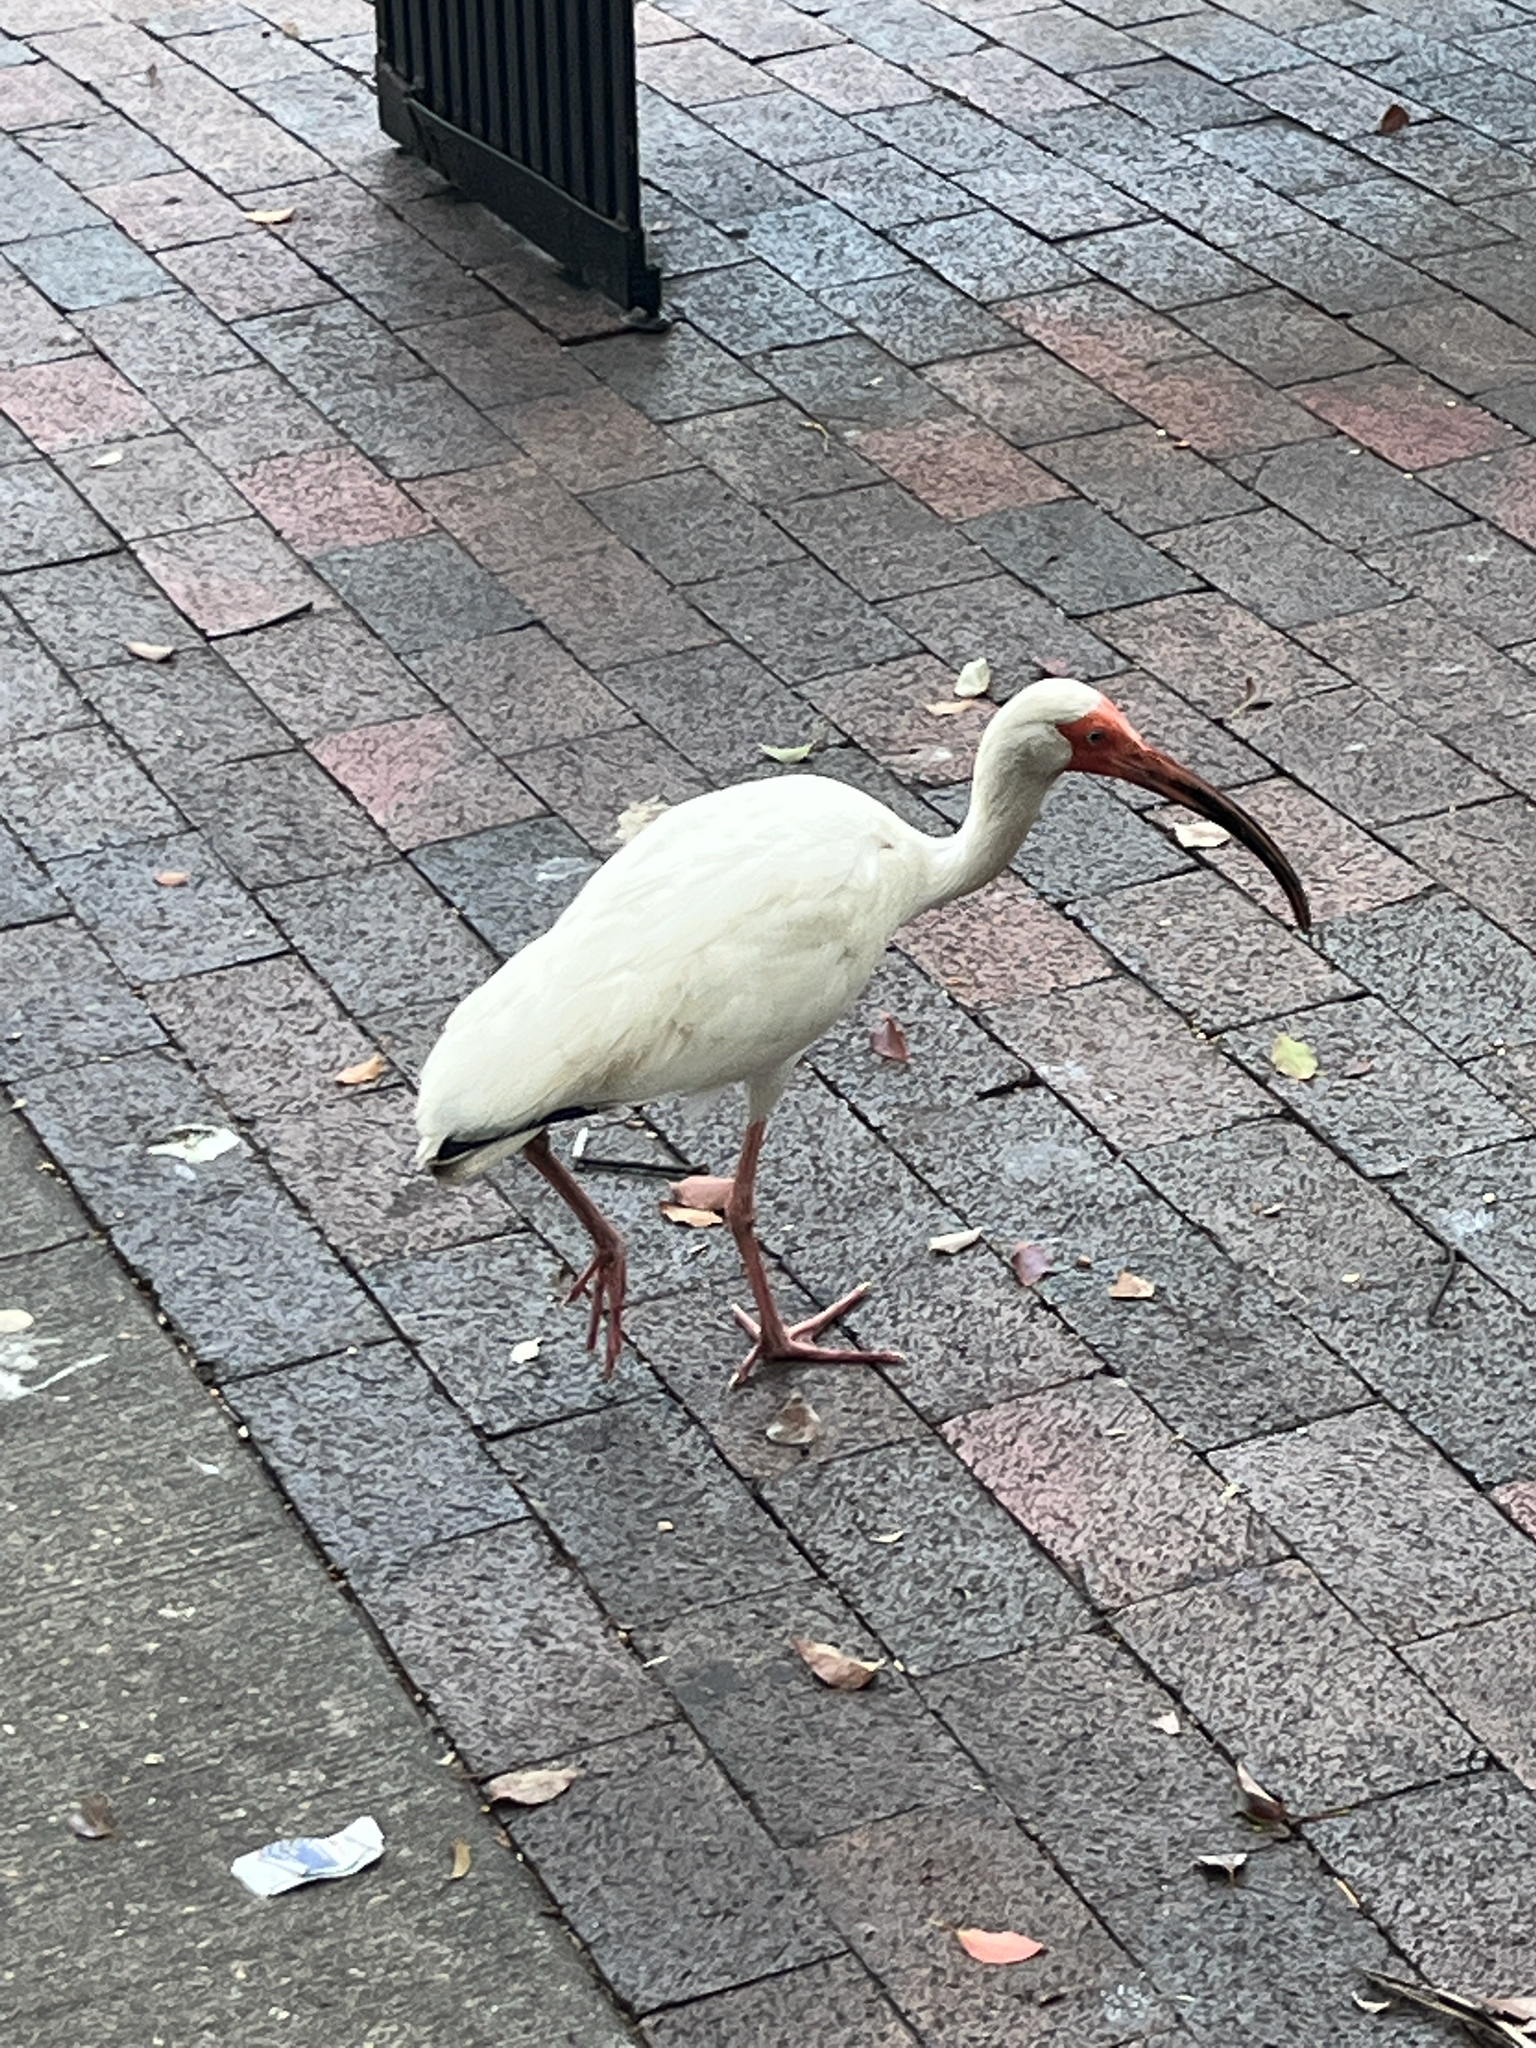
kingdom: Animalia
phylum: Chordata
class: Aves
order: Pelecaniformes
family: Threskiornithidae
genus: Eudocimus
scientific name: Eudocimus albus
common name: White ibis
